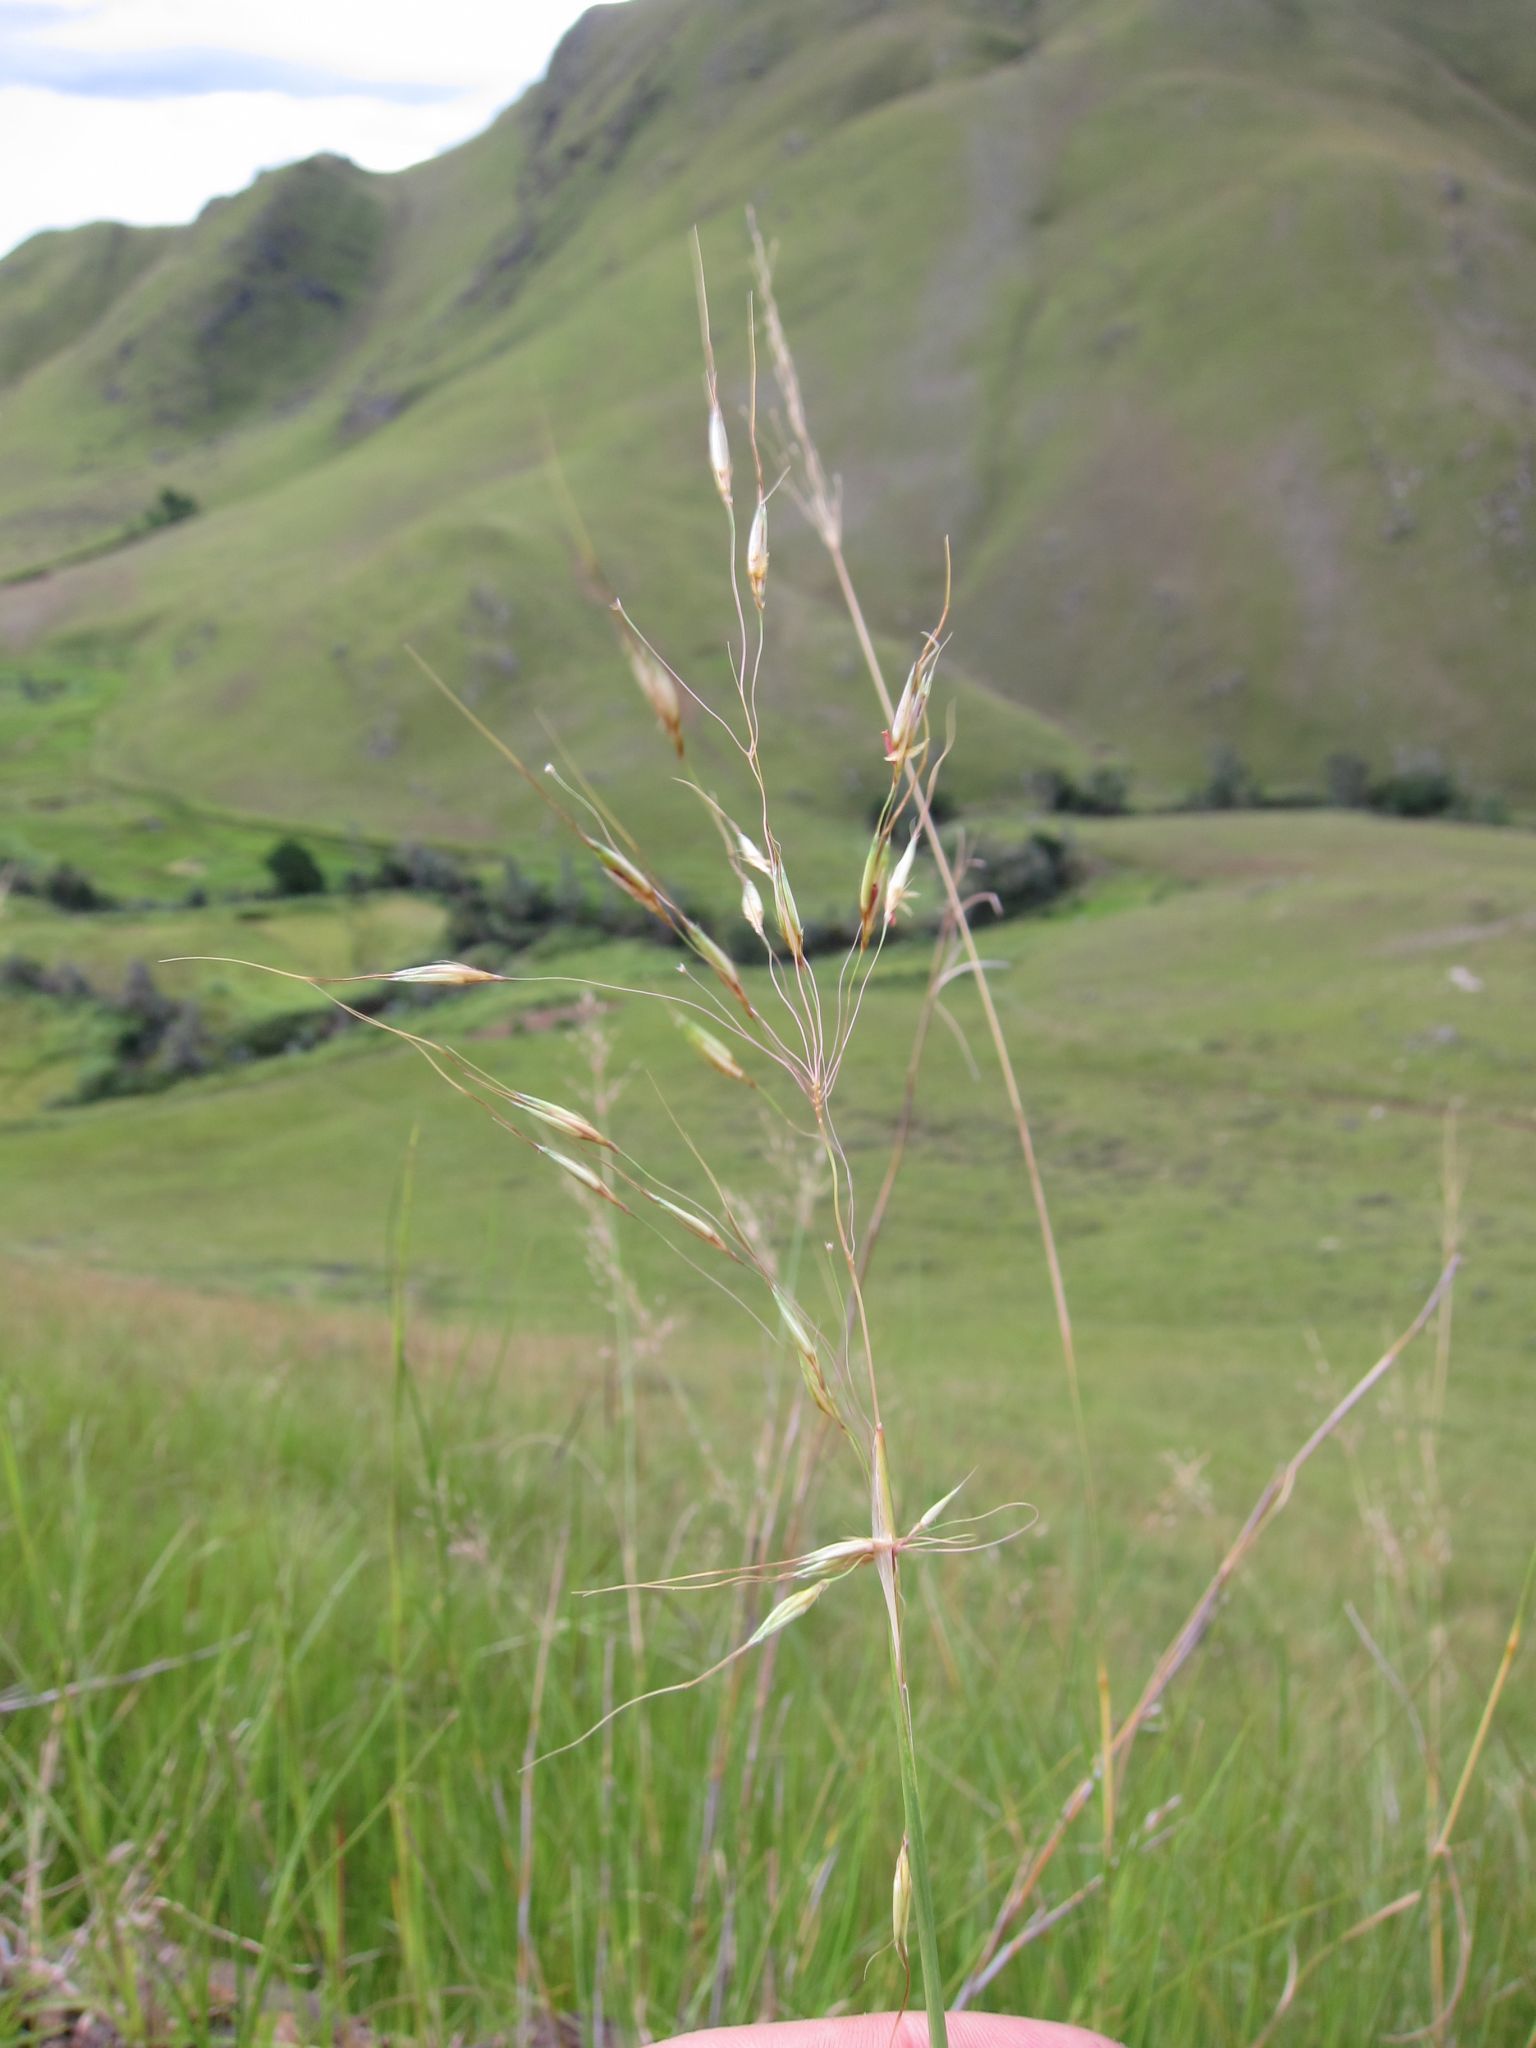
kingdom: Plantae
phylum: Tracheophyta
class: Liliopsida
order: Poales
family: Poaceae
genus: Chrysopogon
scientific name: Chrysopogon serrulatus
